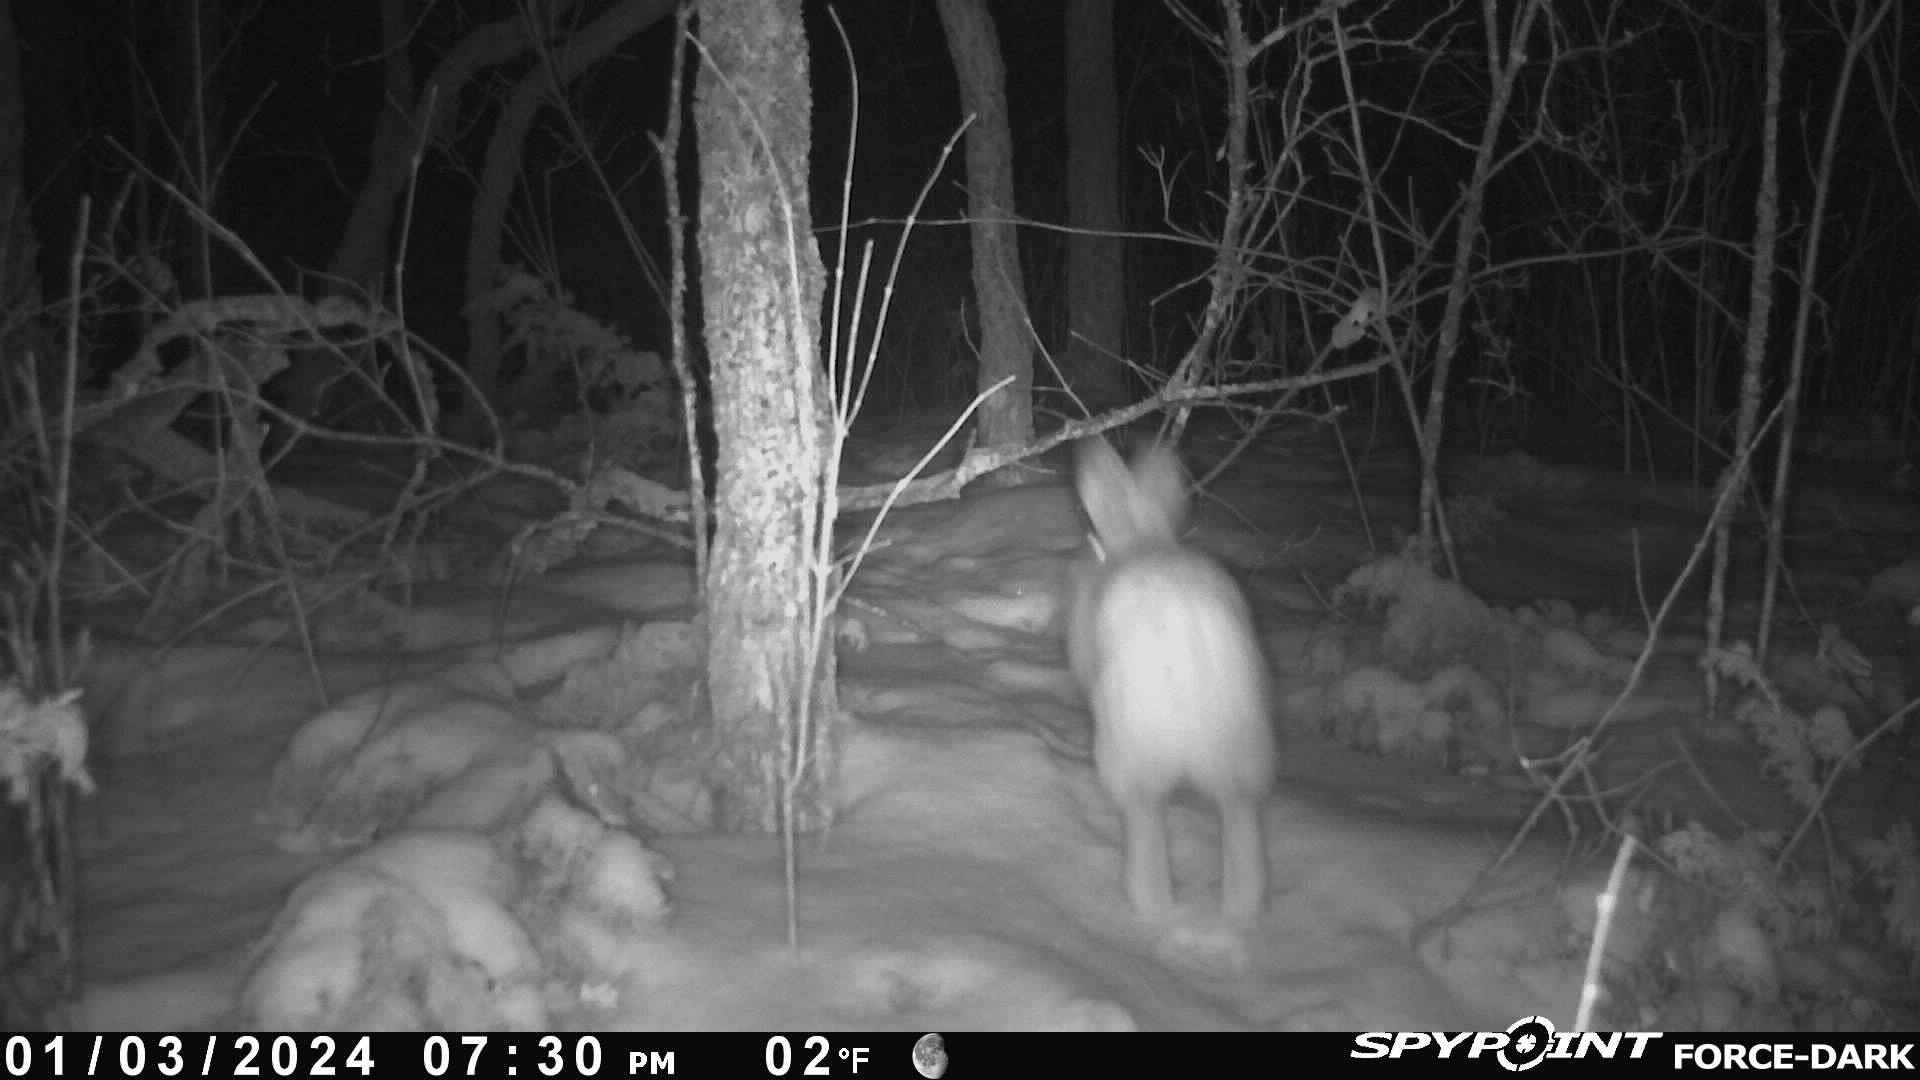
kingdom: Animalia
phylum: Chordata
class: Mammalia
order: Lagomorpha
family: Leporidae
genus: Lepus
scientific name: Lepus americanus
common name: Snowshoe hare
